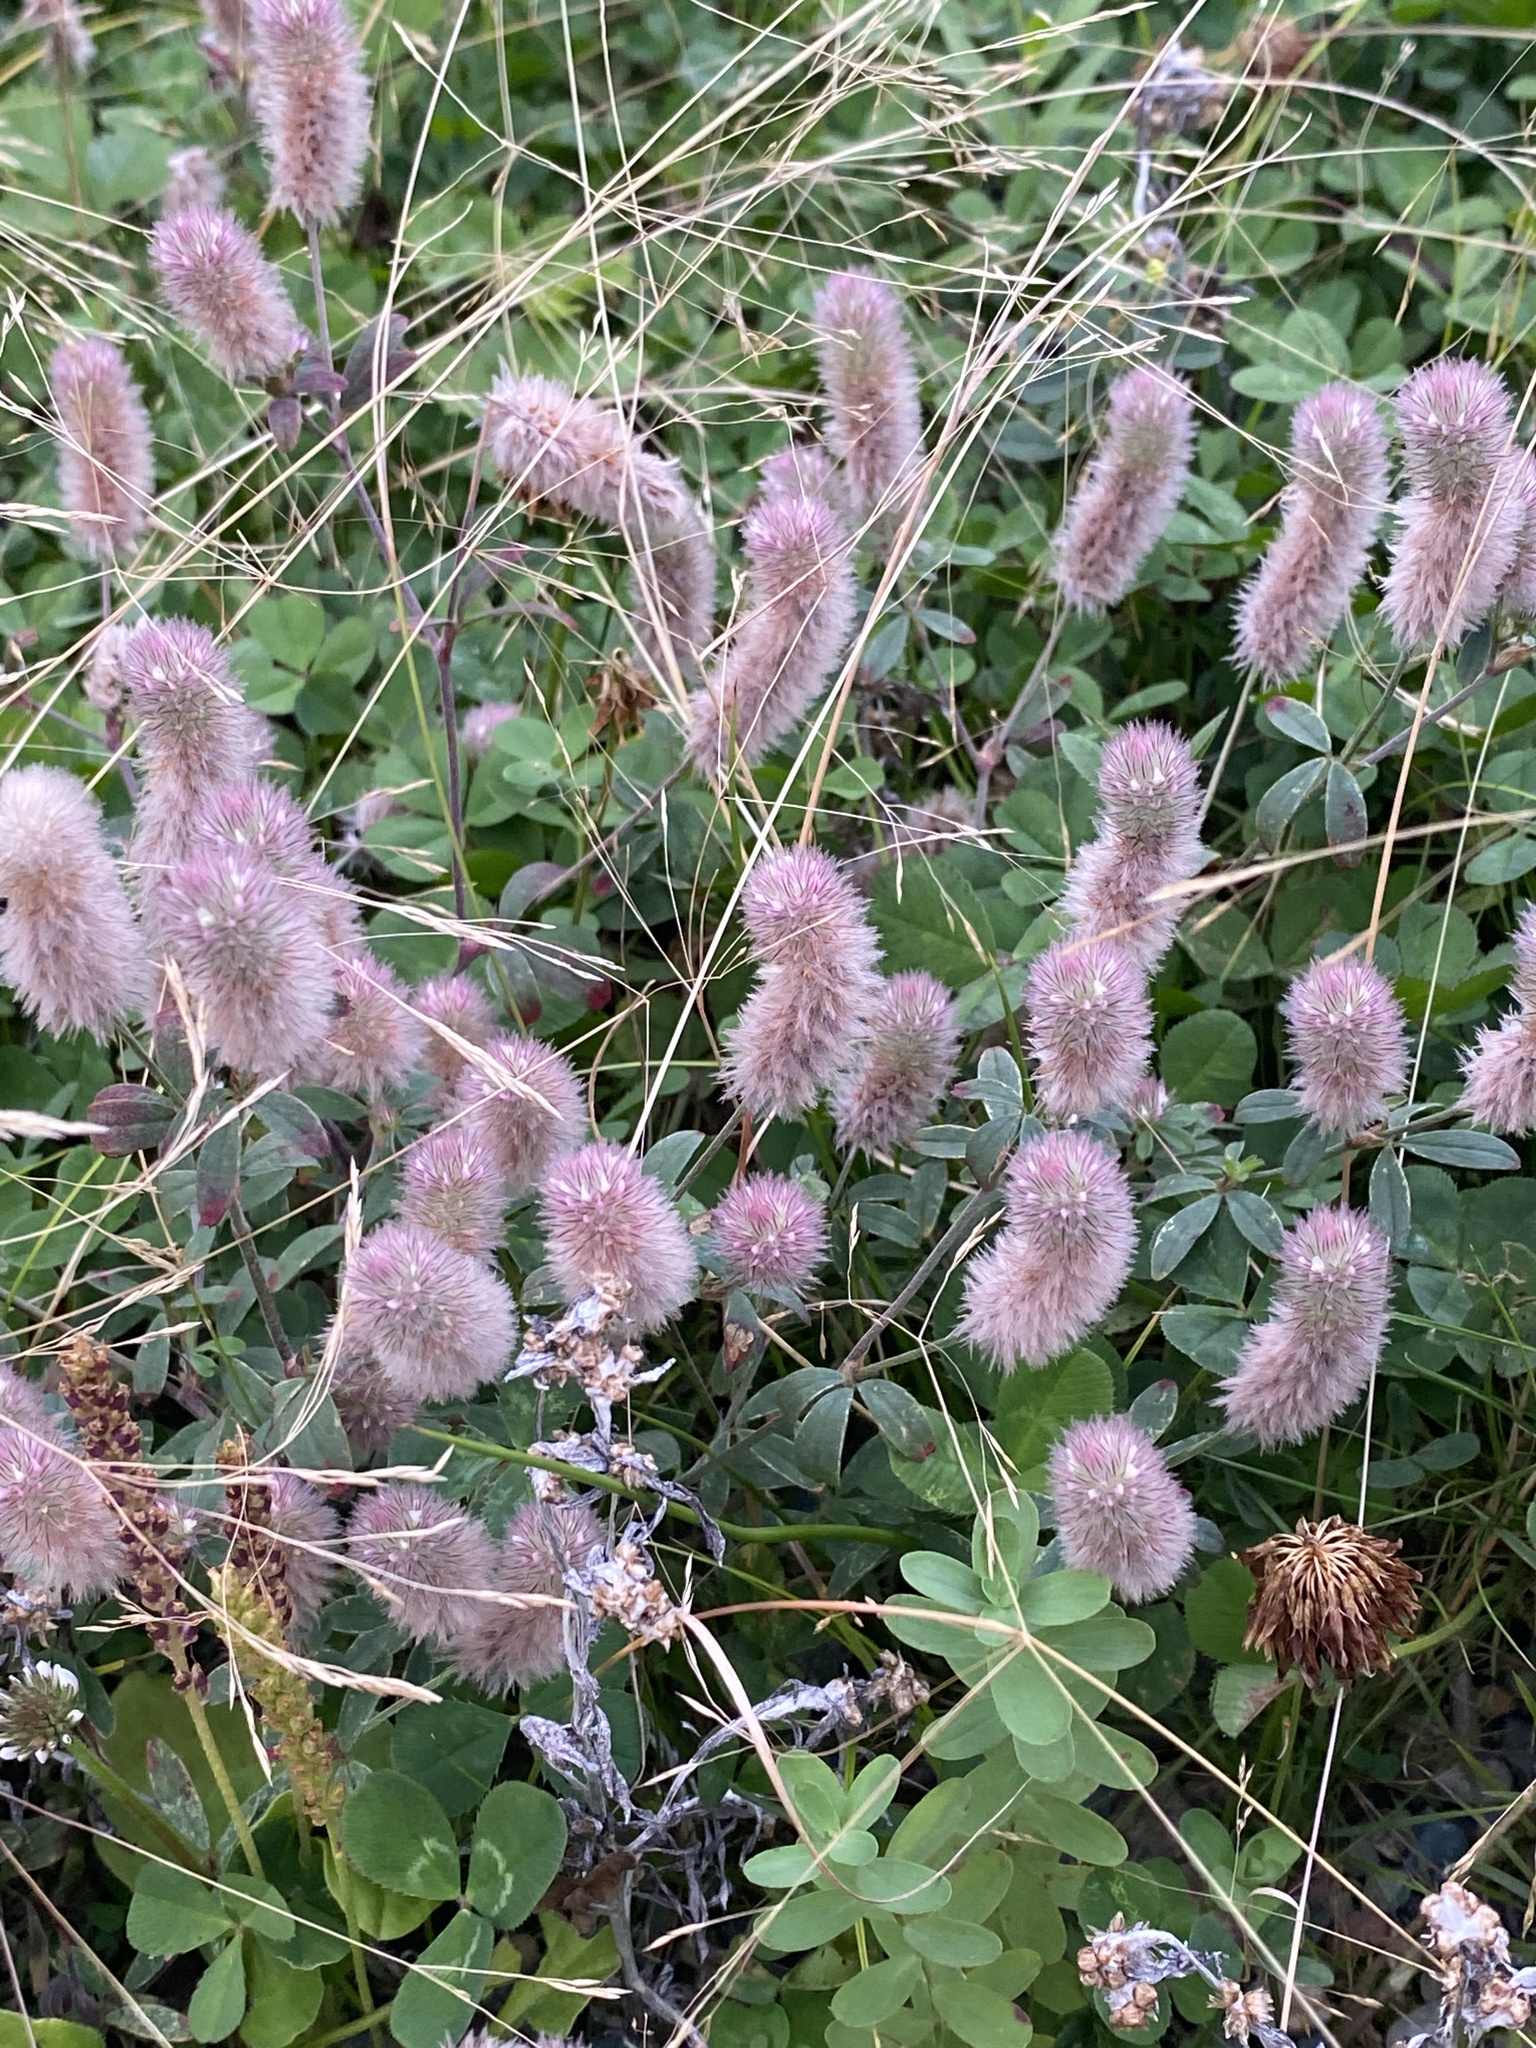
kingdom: Plantae
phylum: Tracheophyta
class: Magnoliopsida
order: Fabales
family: Fabaceae
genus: Trifolium
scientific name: Trifolium arvense
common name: Hare's-foot clover
